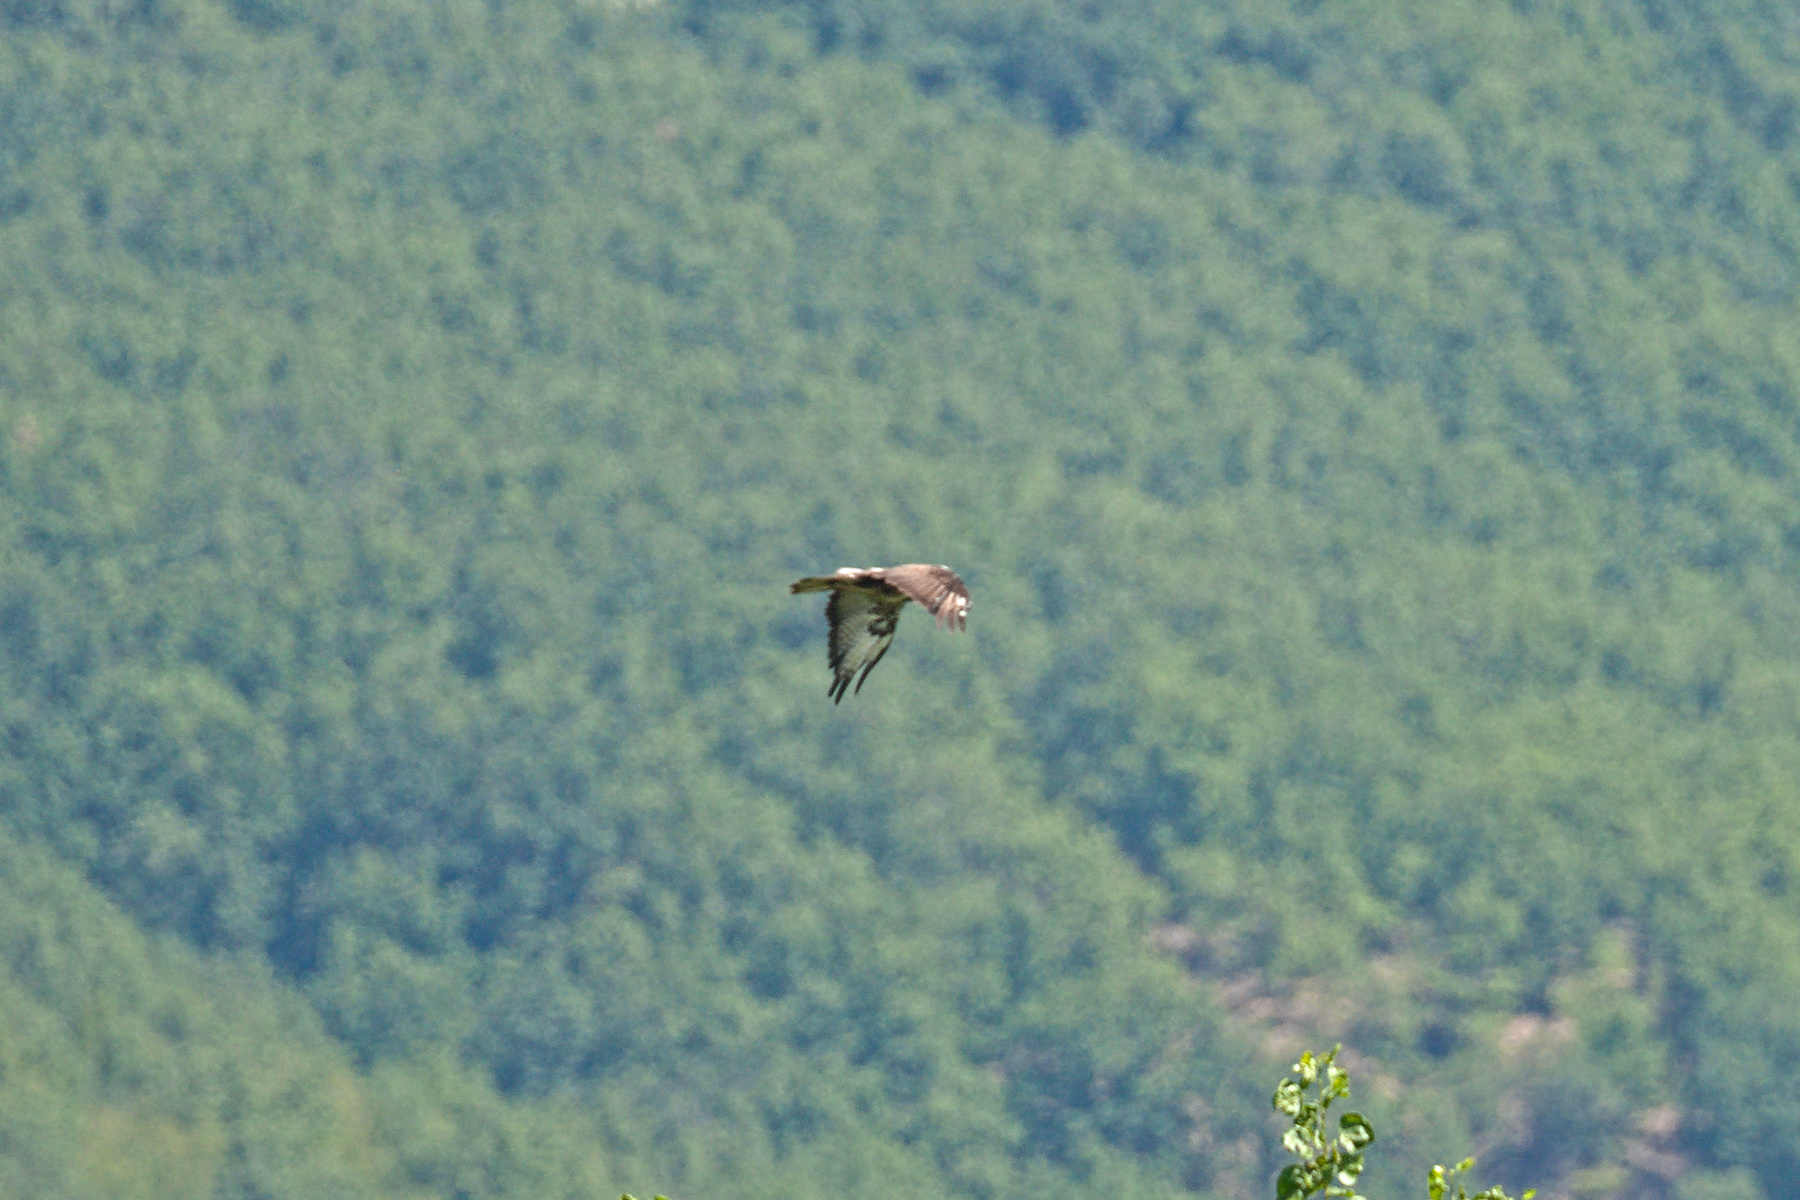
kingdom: Animalia
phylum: Chordata
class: Aves
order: Accipitriformes
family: Accipitridae
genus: Buteo
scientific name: Buteo buteo
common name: Common buzzard
